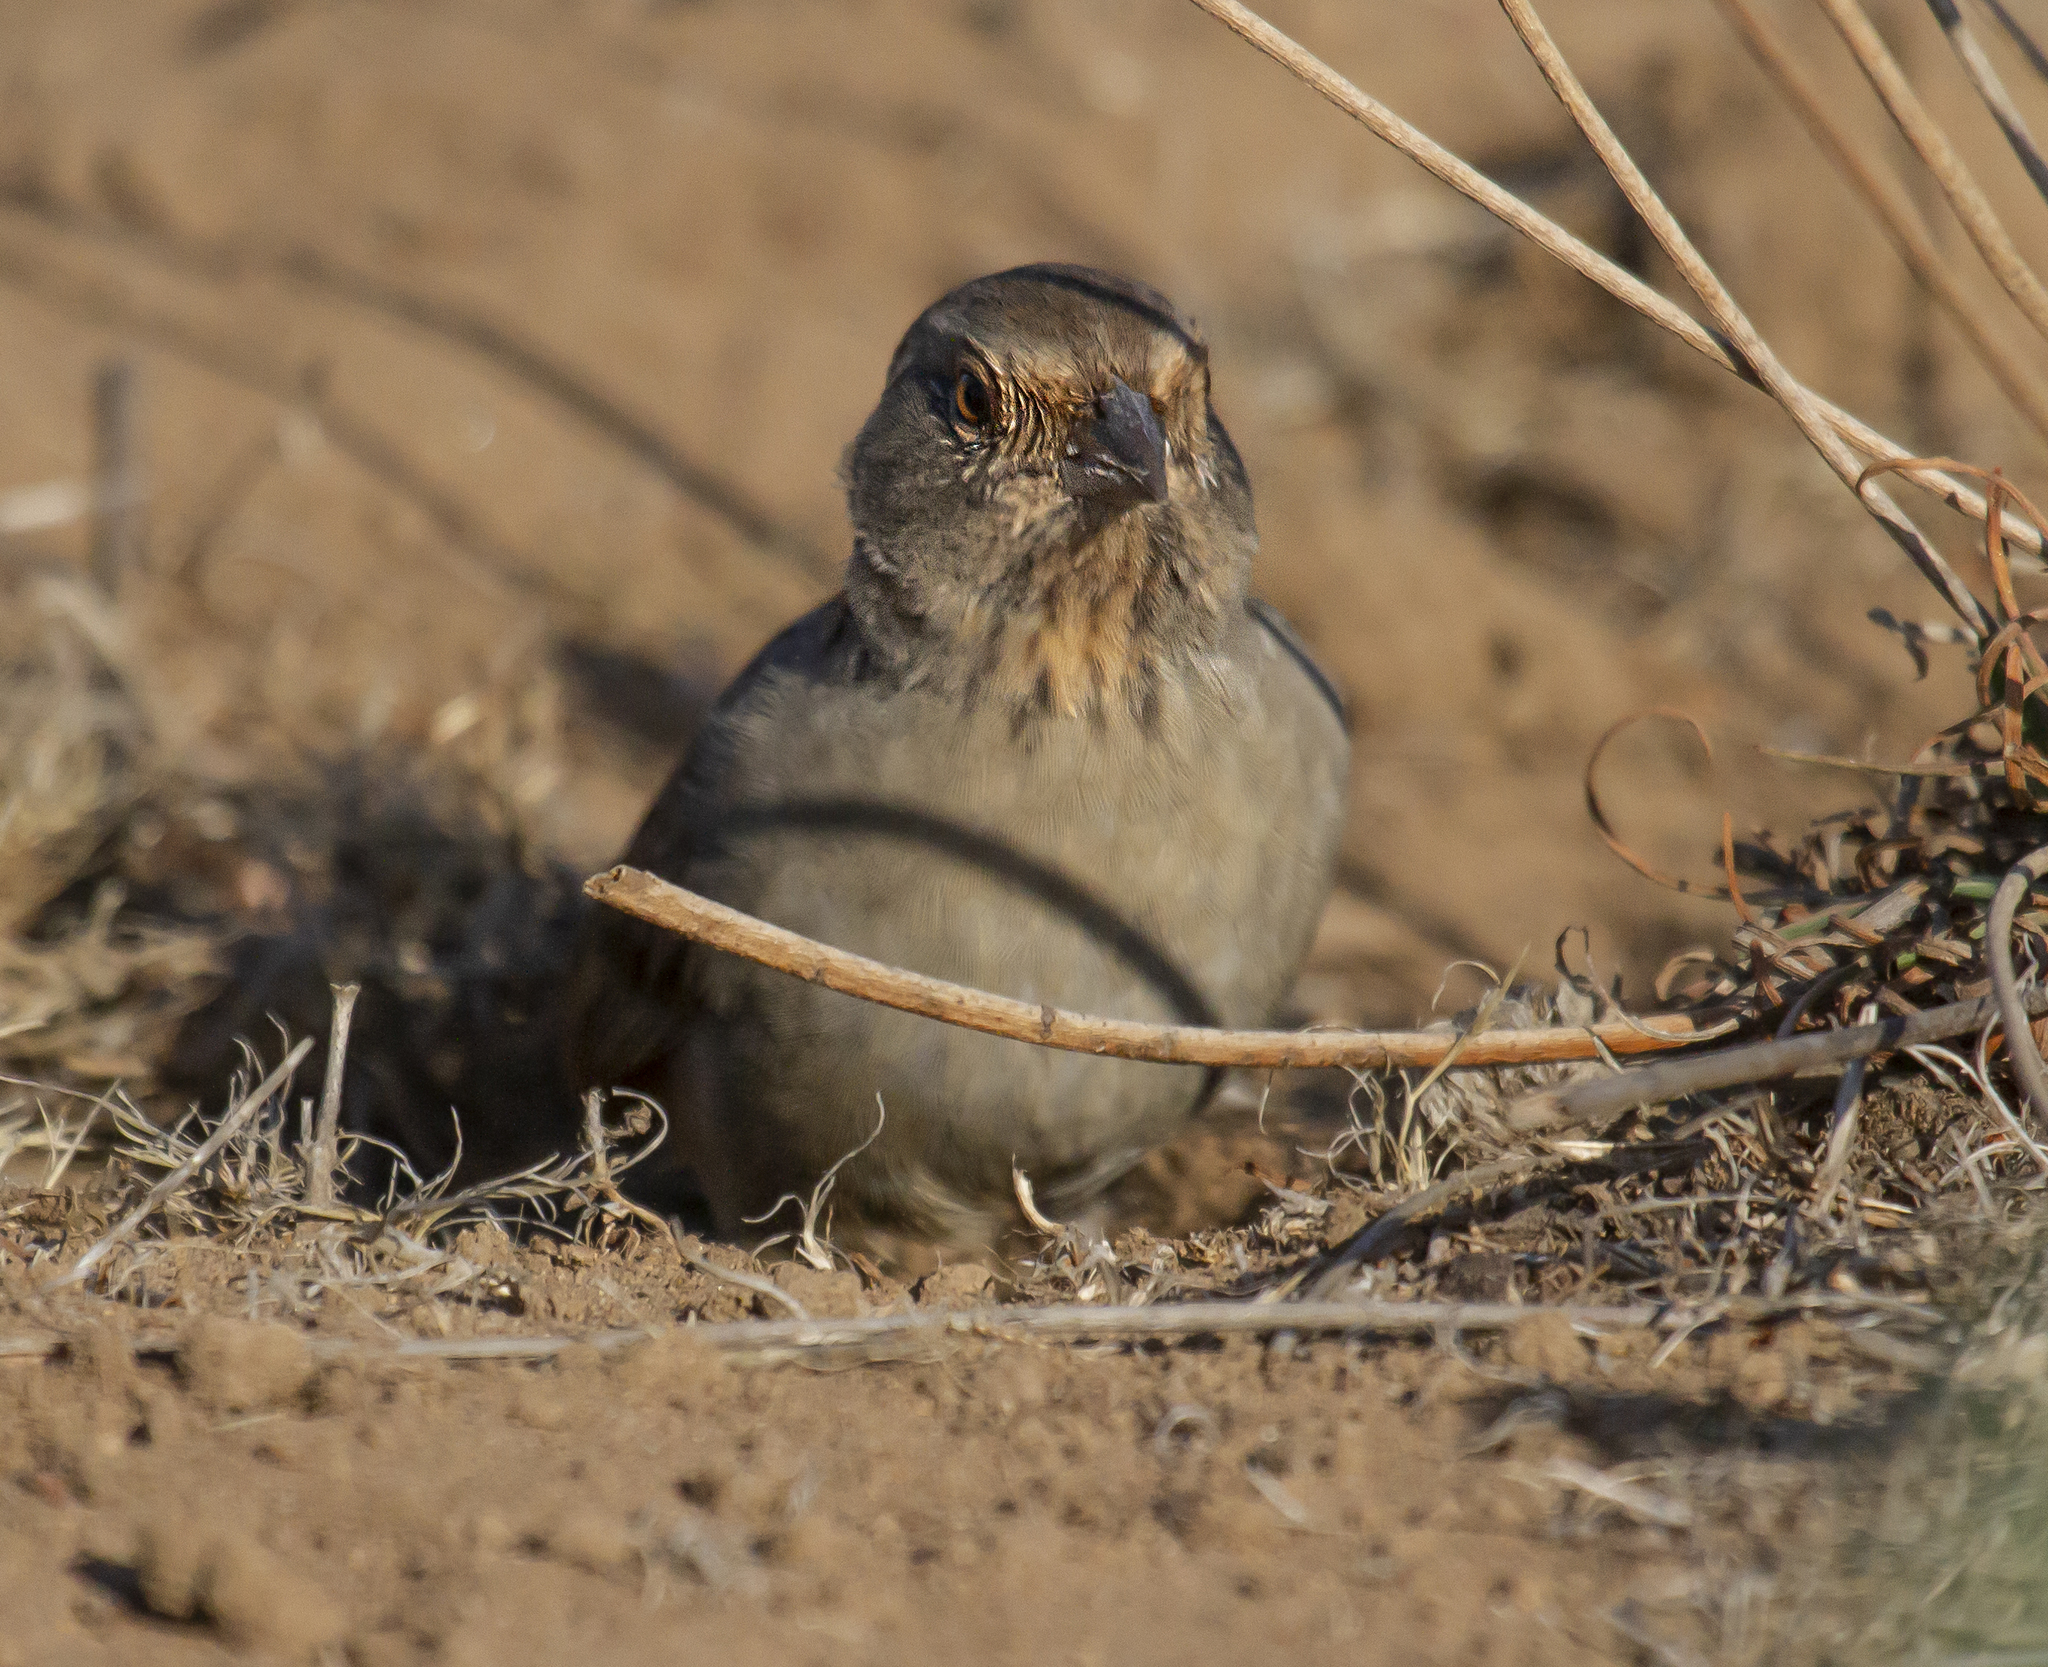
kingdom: Animalia
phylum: Chordata
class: Aves
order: Passeriformes
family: Passerellidae
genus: Melozone
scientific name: Melozone crissalis
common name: California towhee
